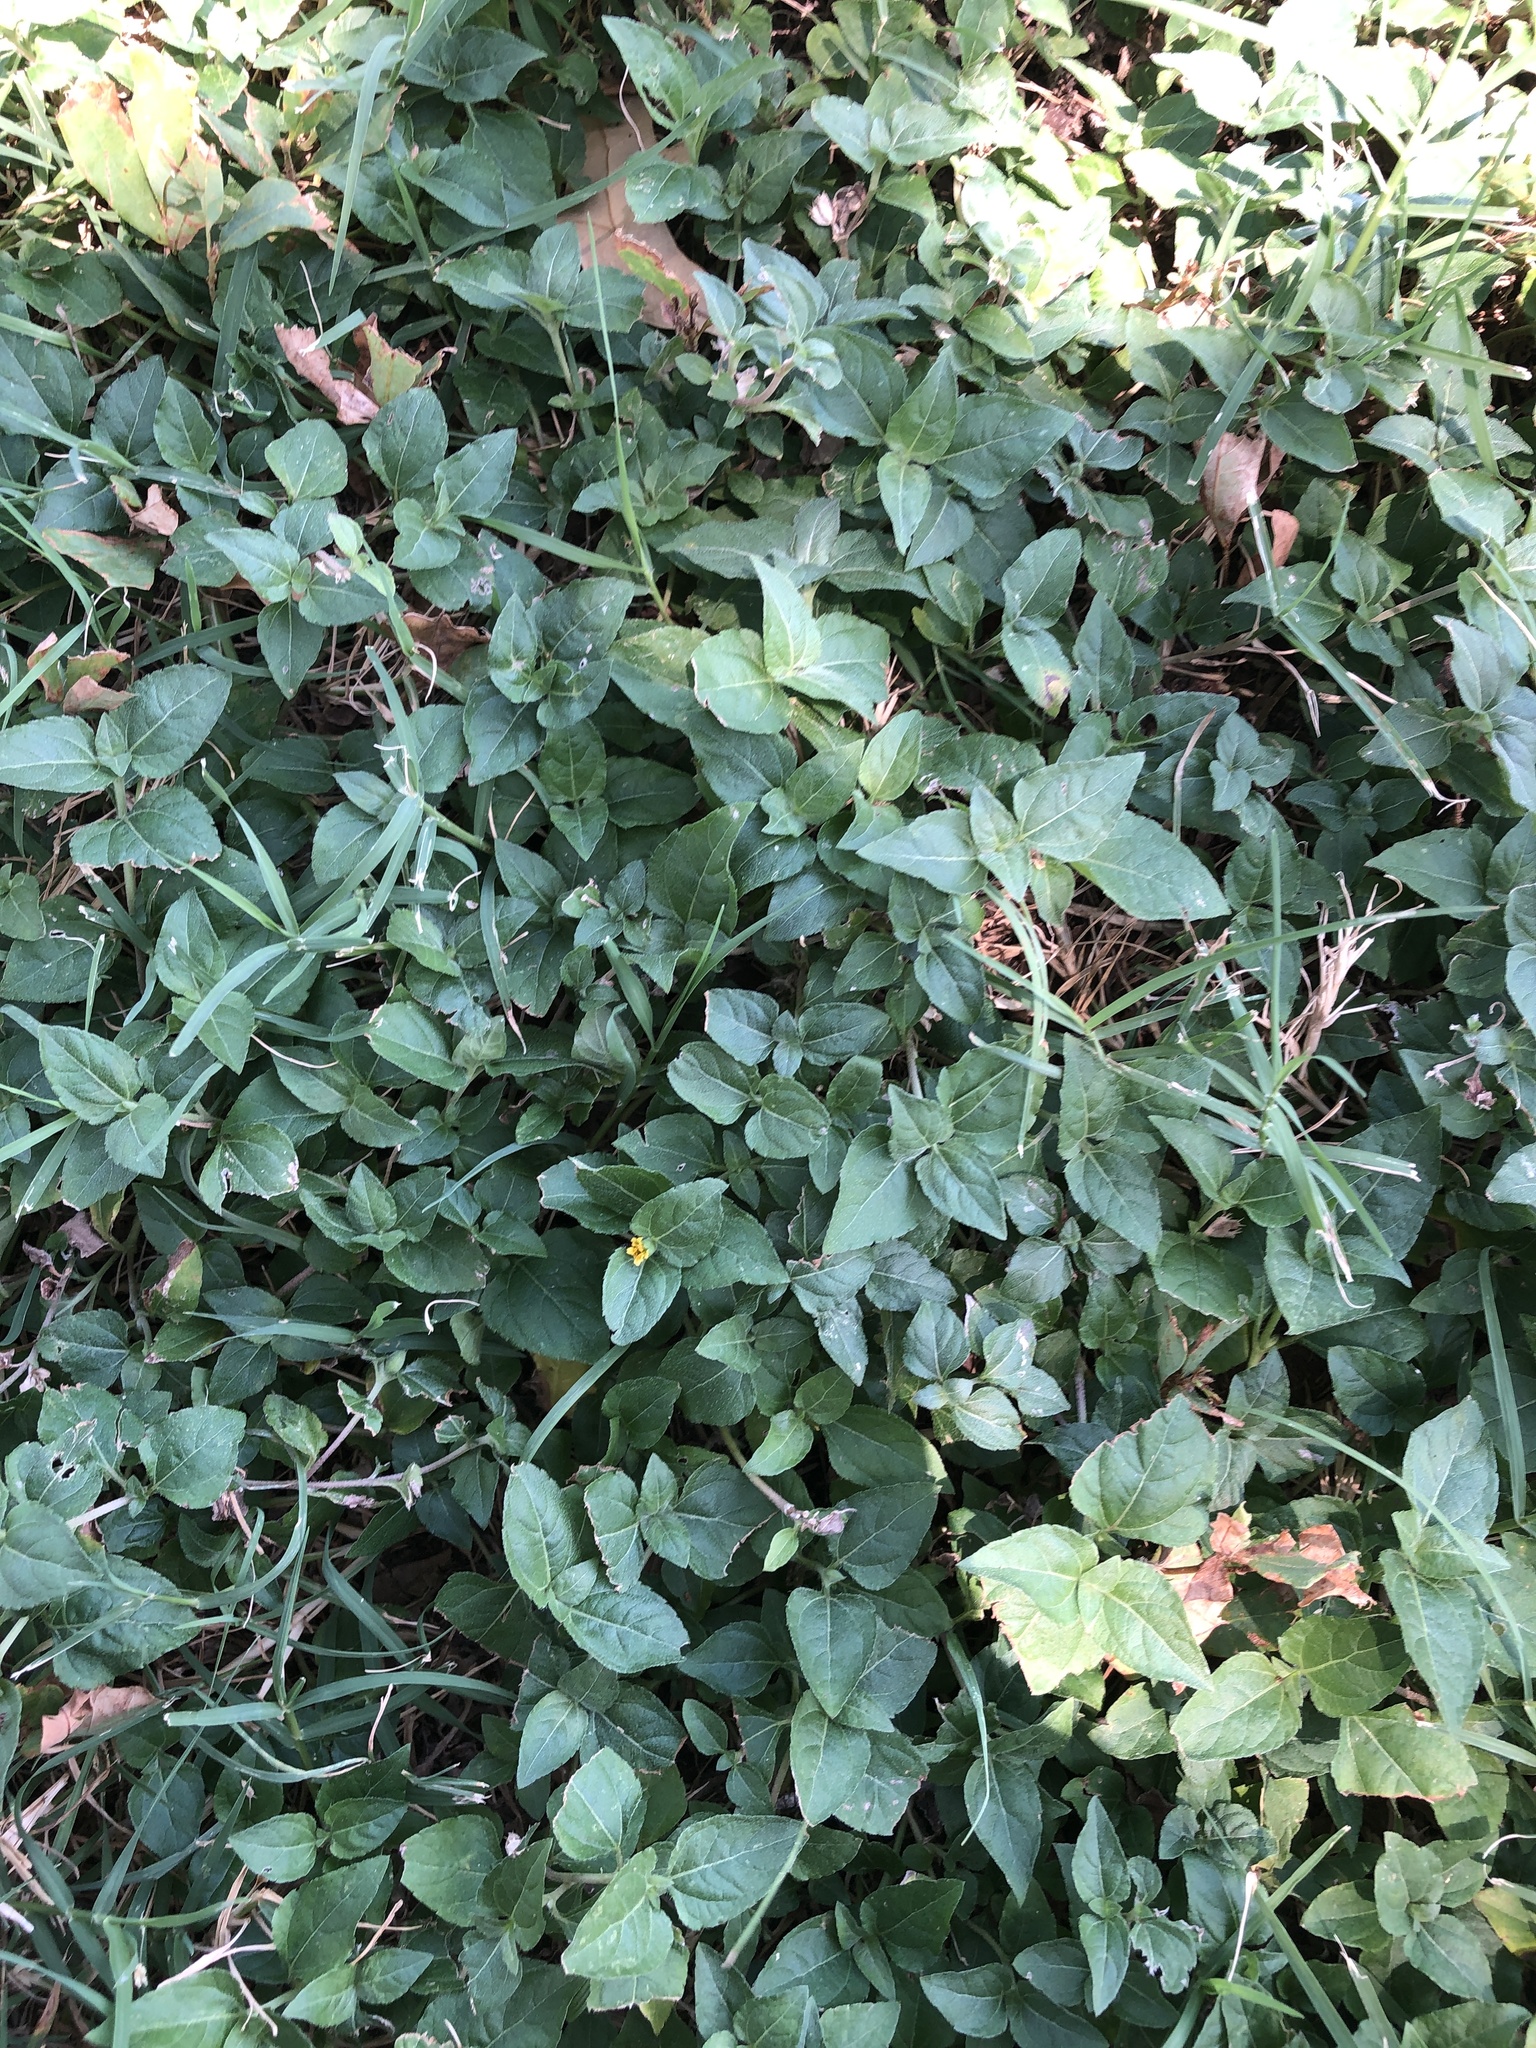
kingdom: Plantae
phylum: Tracheophyta
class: Magnoliopsida
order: Asterales
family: Asteraceae
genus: Calyptocarpus
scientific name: Calyptocarpus vialis
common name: Straggler daisy
